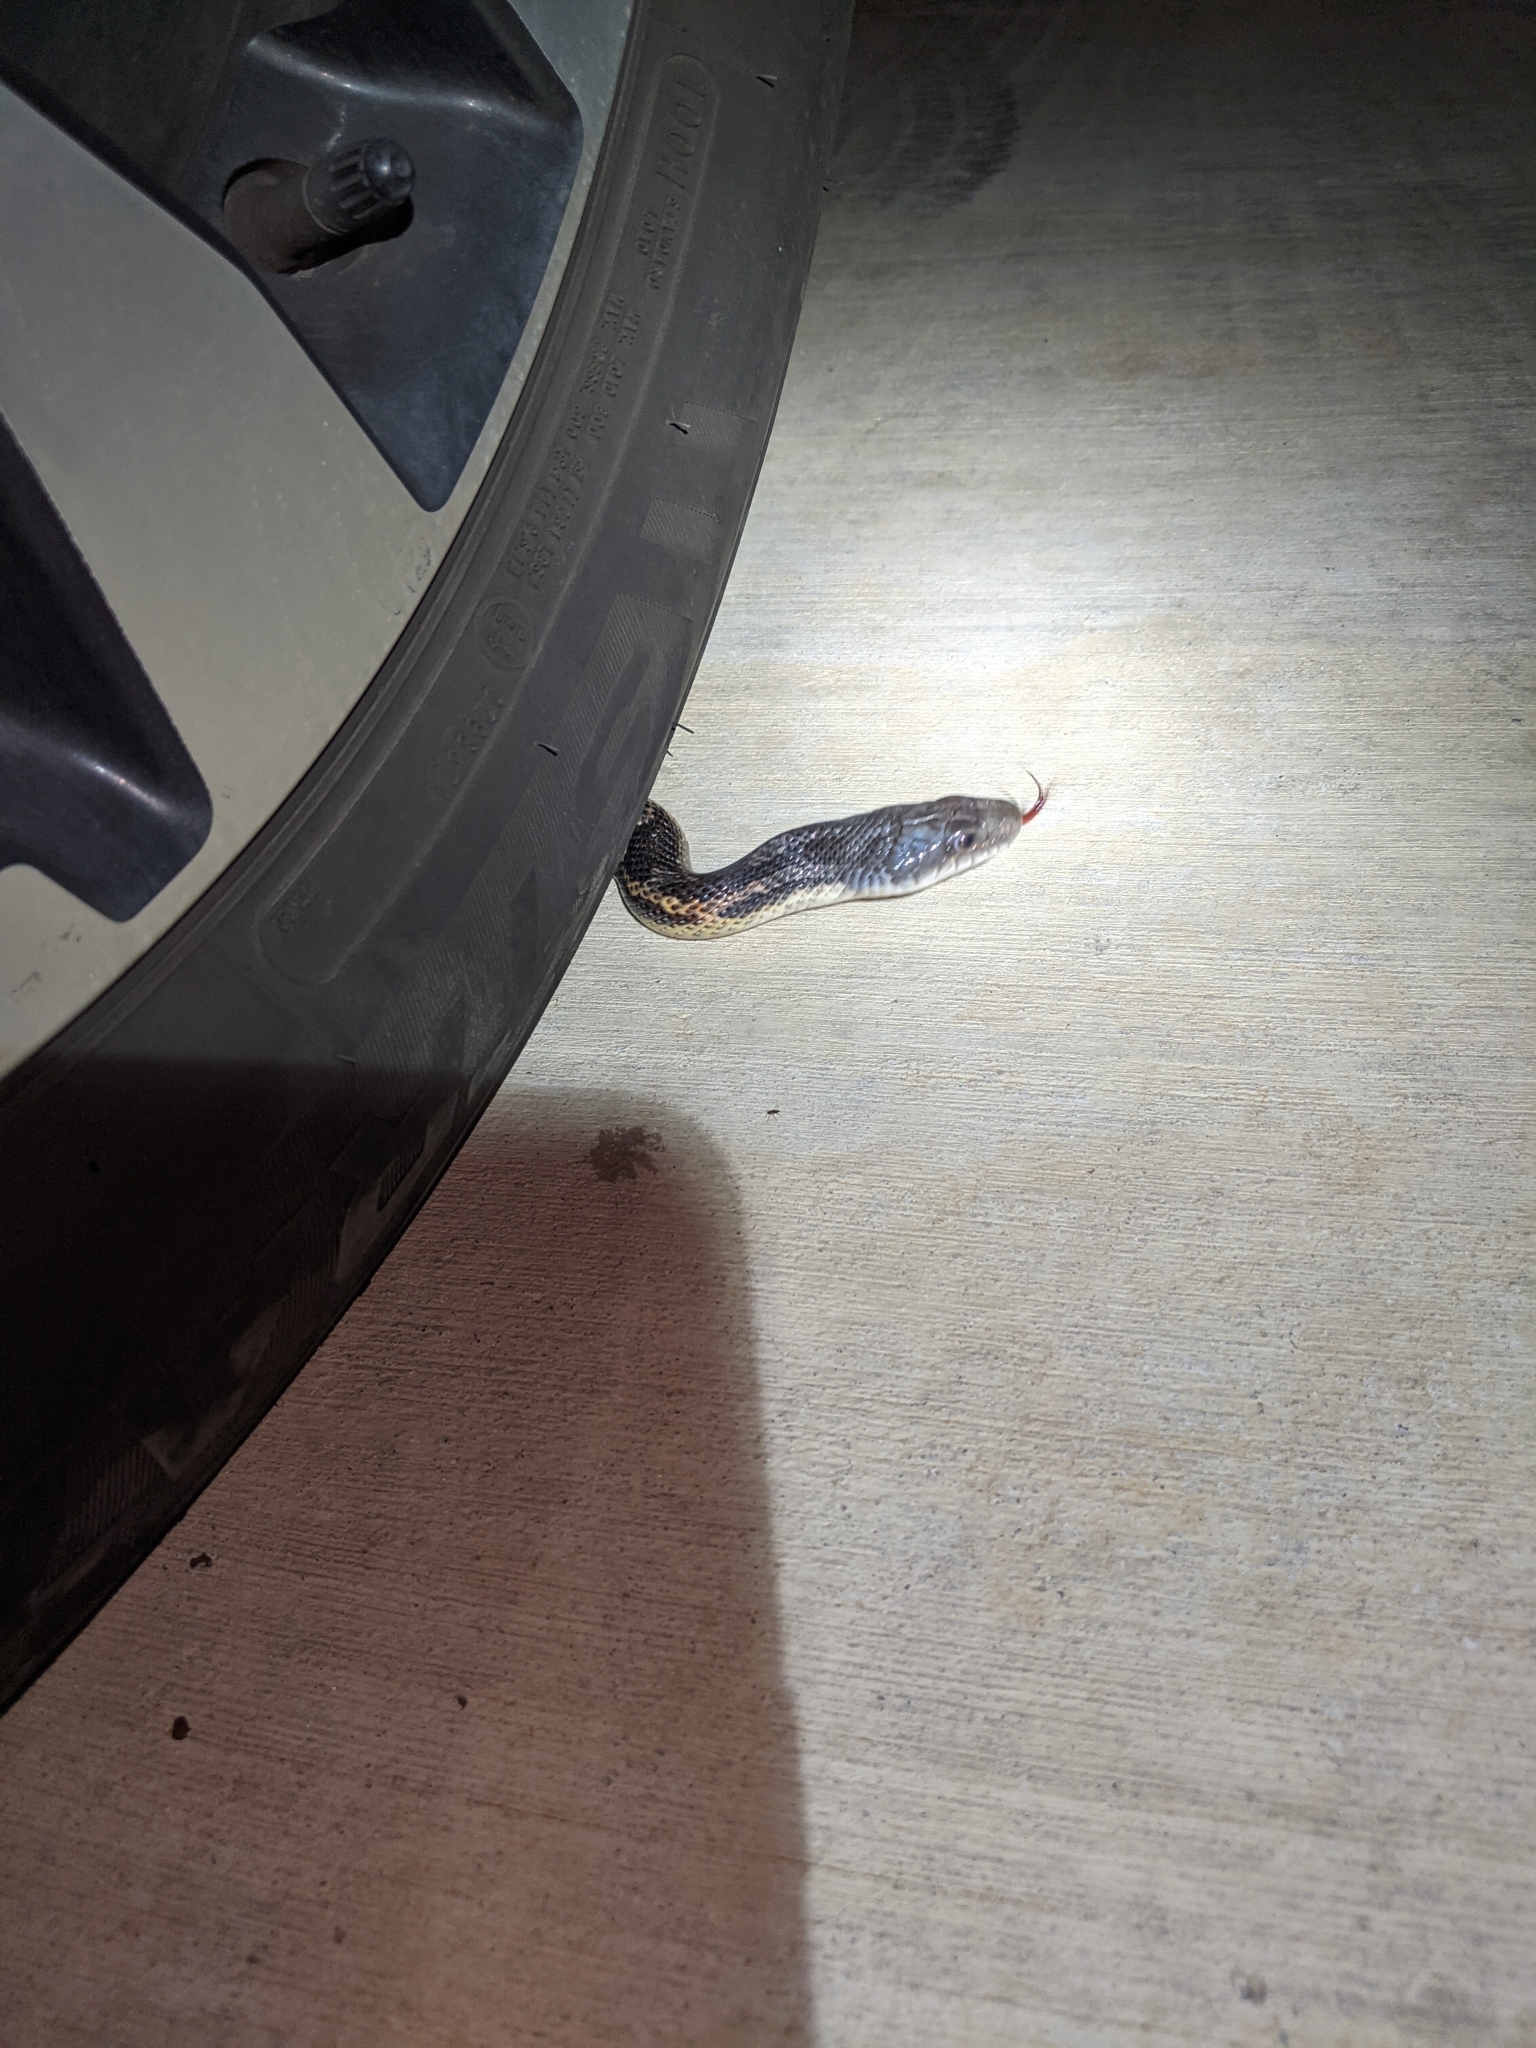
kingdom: Animalia
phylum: Chordata
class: Squamata
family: Colubridae
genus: Pantherophis
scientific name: Pantherophis obsoletus
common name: Black rat snake
